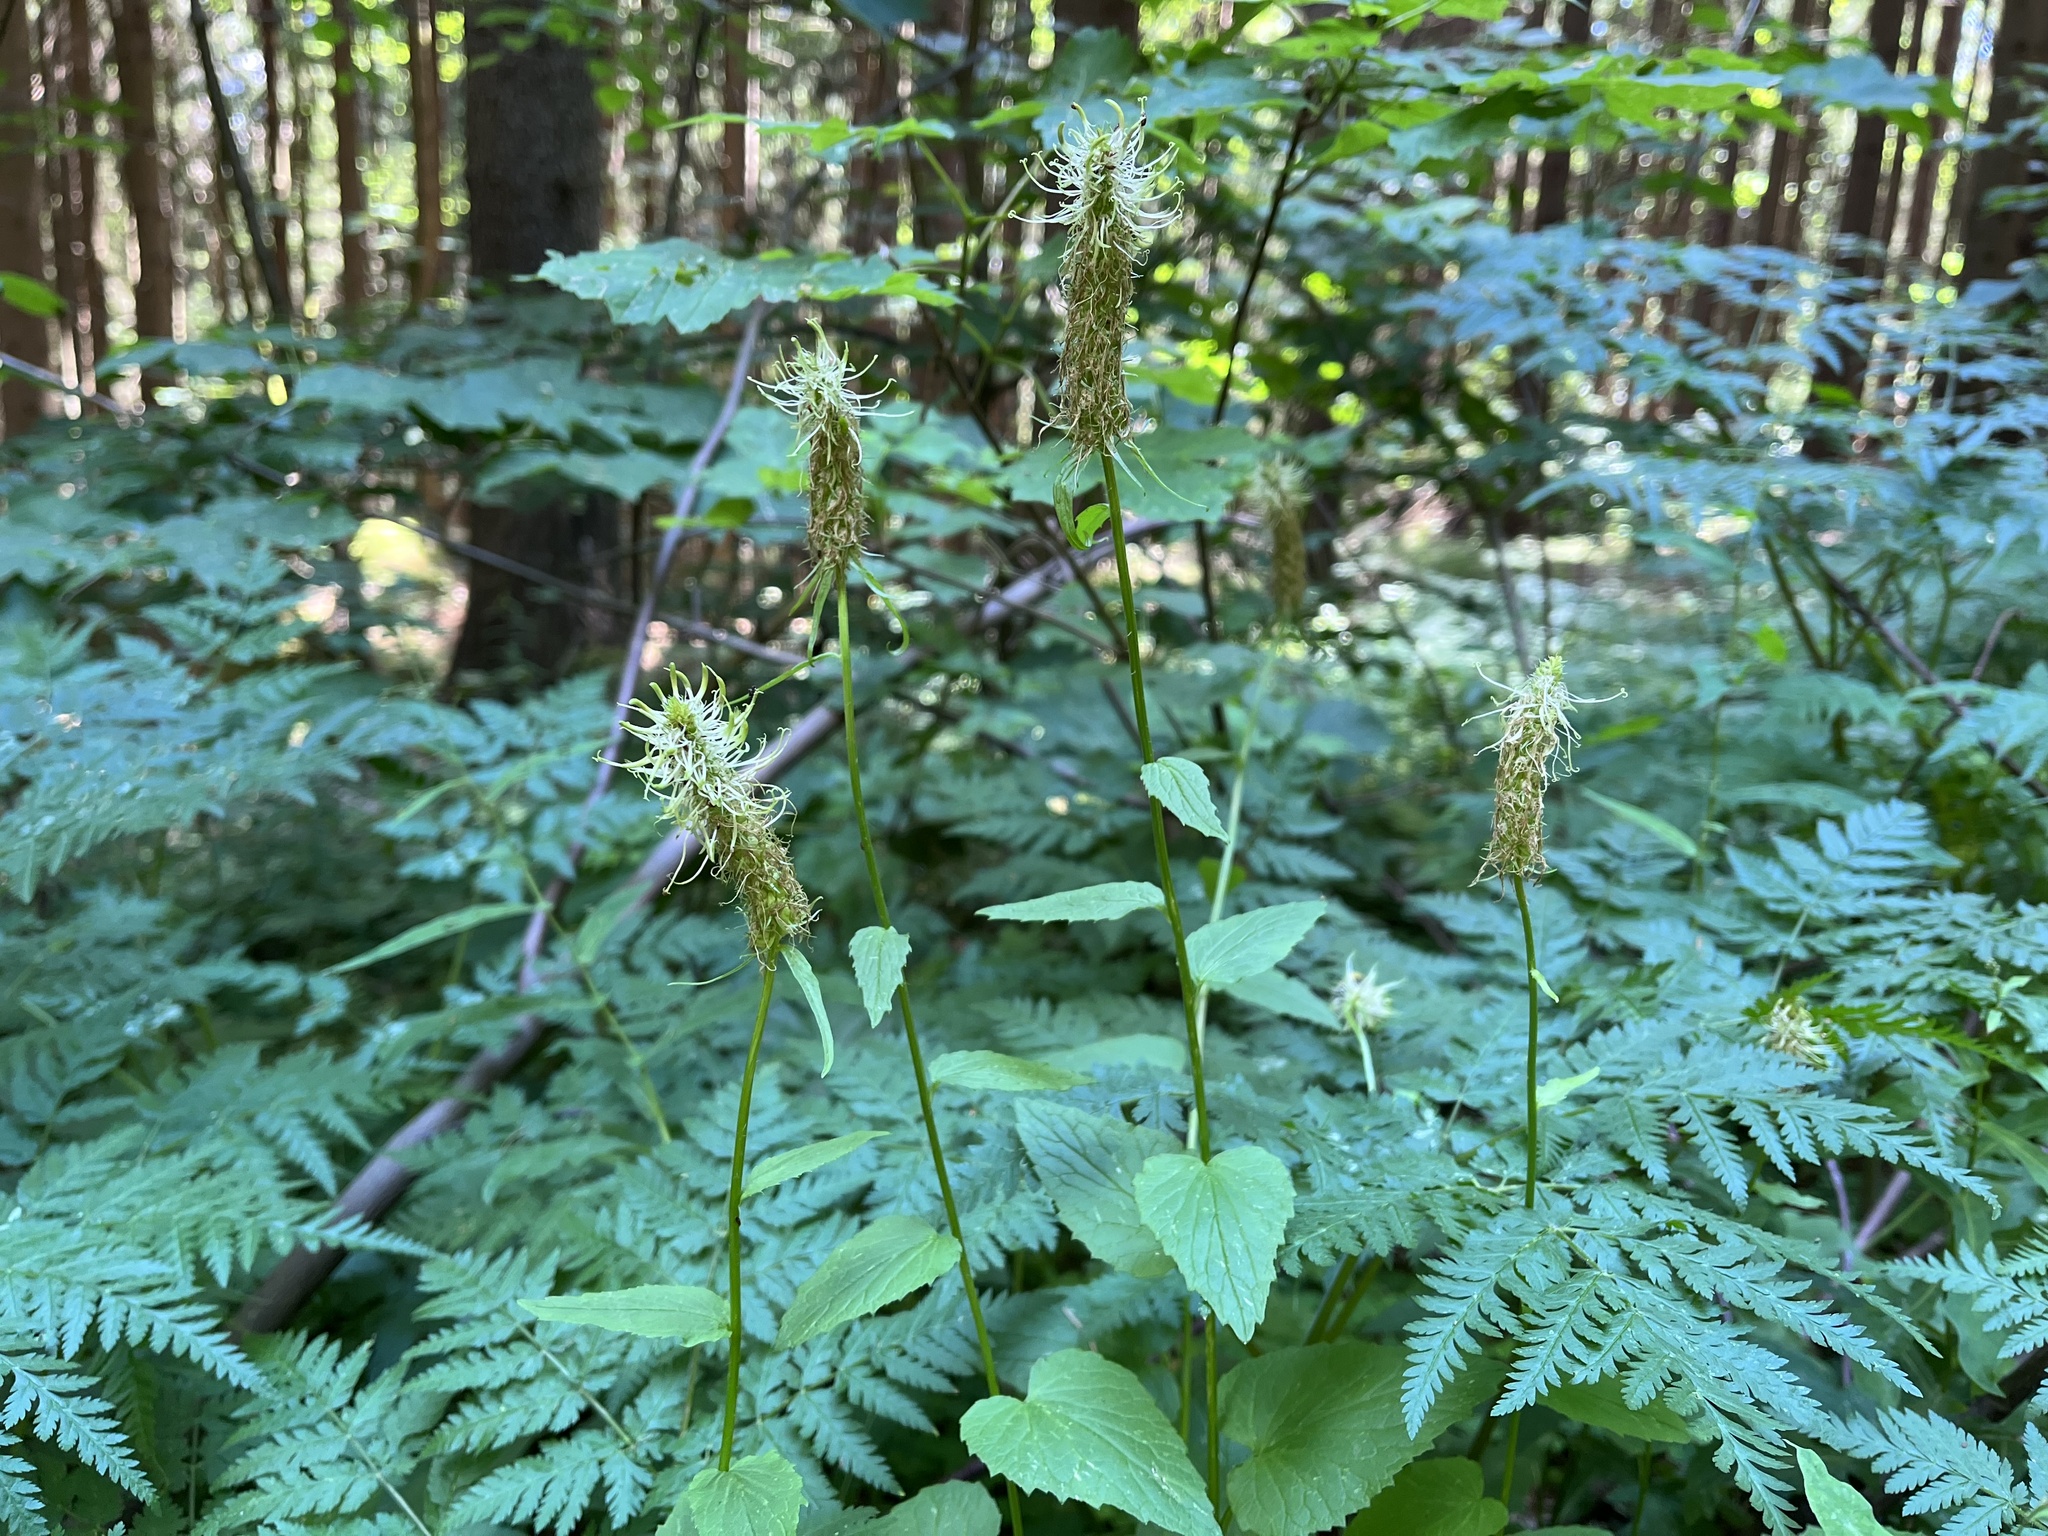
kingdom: Plantae
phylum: Tracheophyta
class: Magnoliopsida
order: Asterales
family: Campanulaceae
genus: Phyteuma
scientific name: Phyteuma spicatum
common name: Spiked rampion
